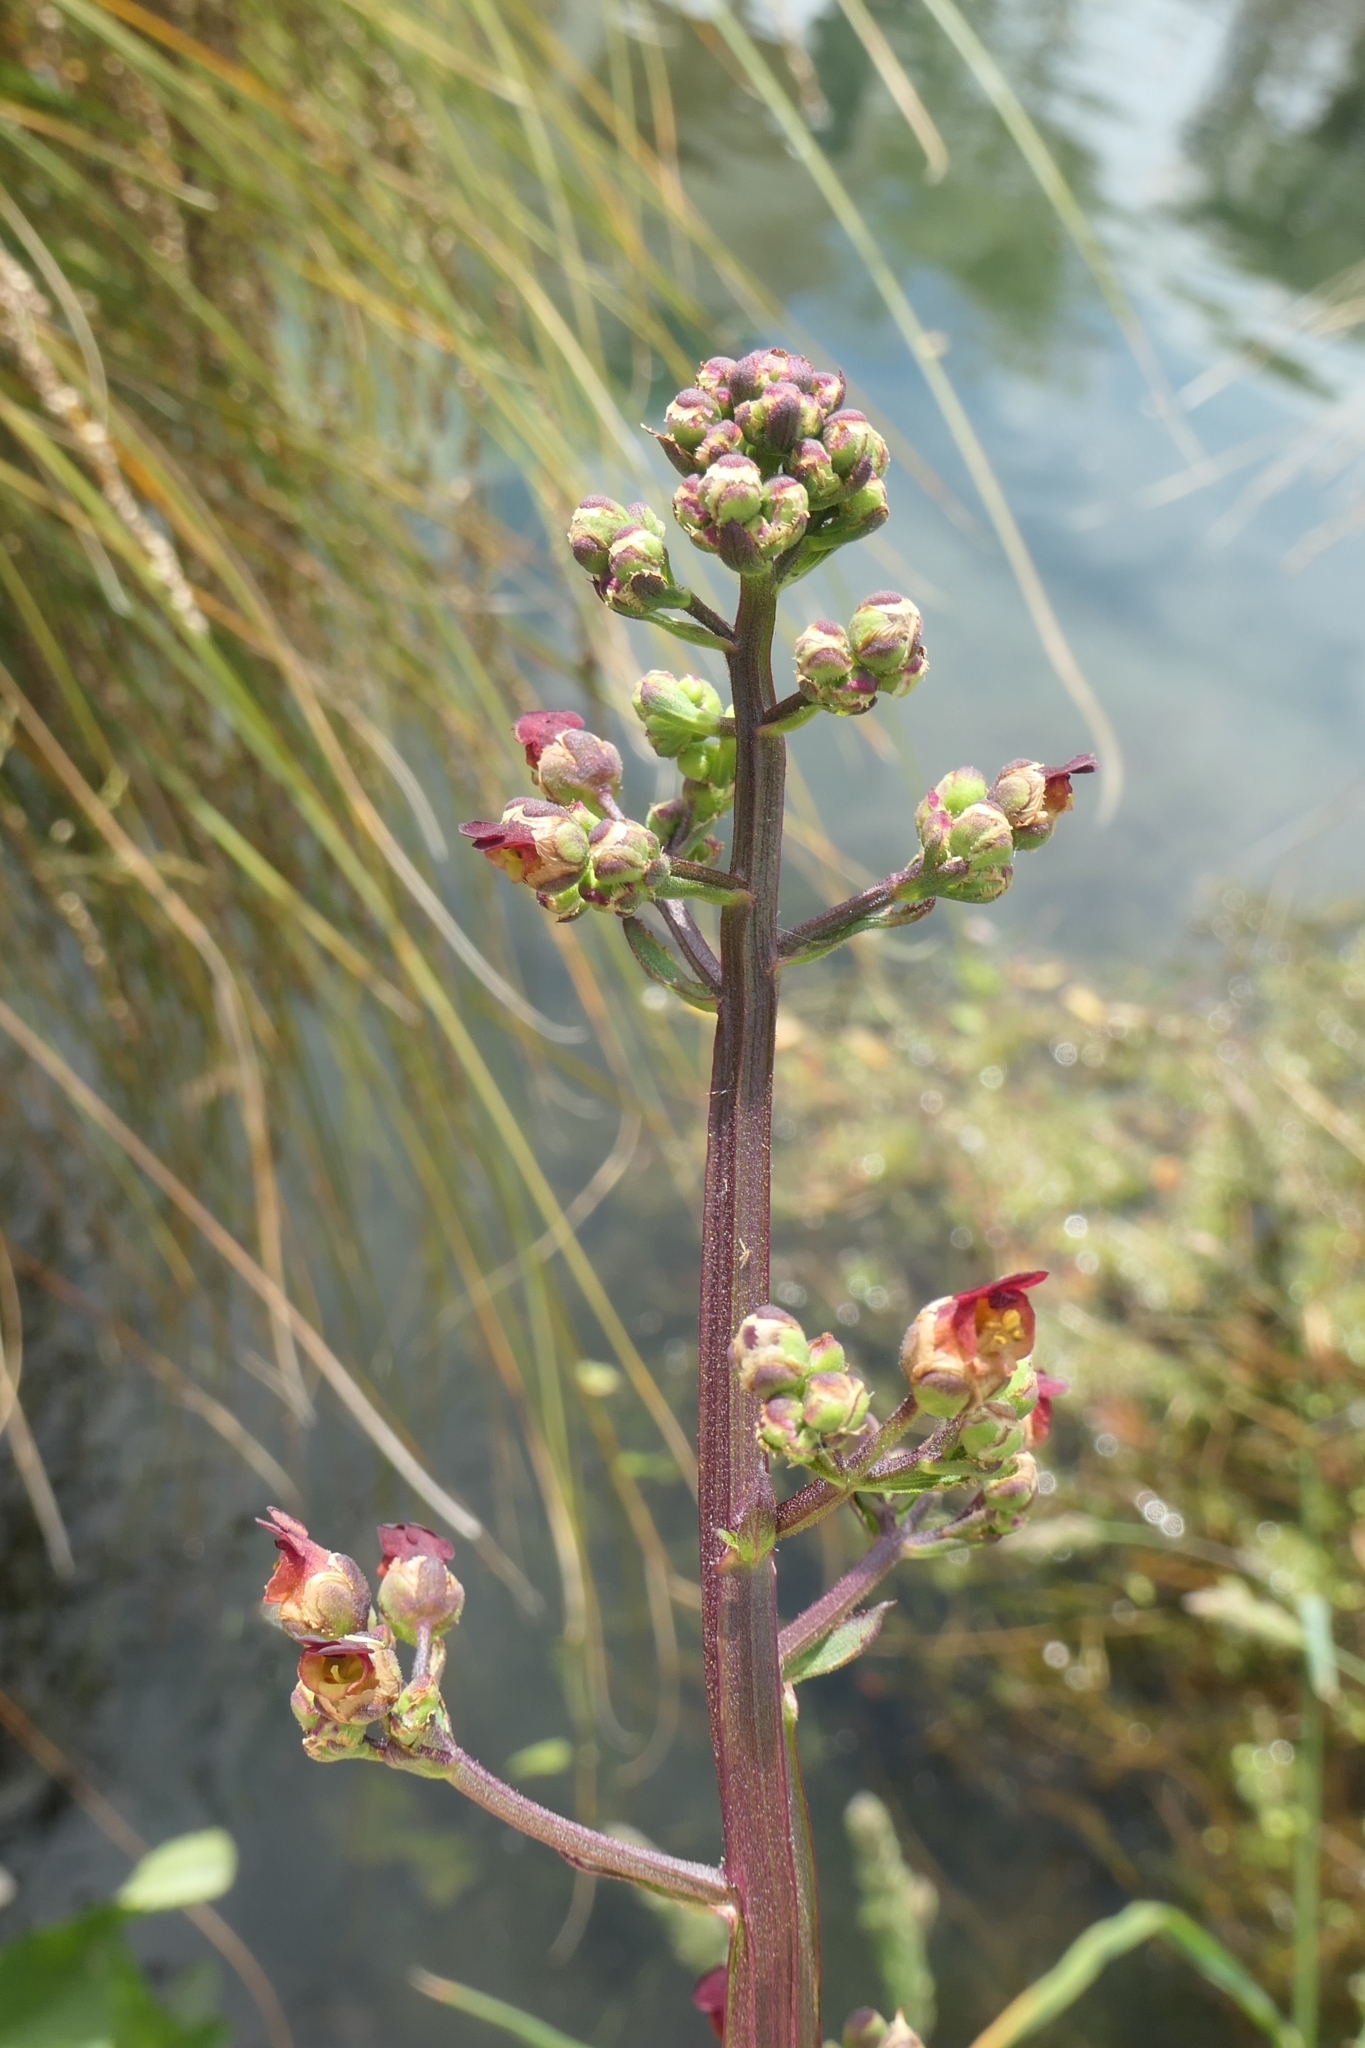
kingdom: Plantae
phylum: Tracheophyta
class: Magnoliopsida
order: Lamiales
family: Scrophulariaceae
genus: Scrophularia
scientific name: Scrophularia auriculata
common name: Water betony
